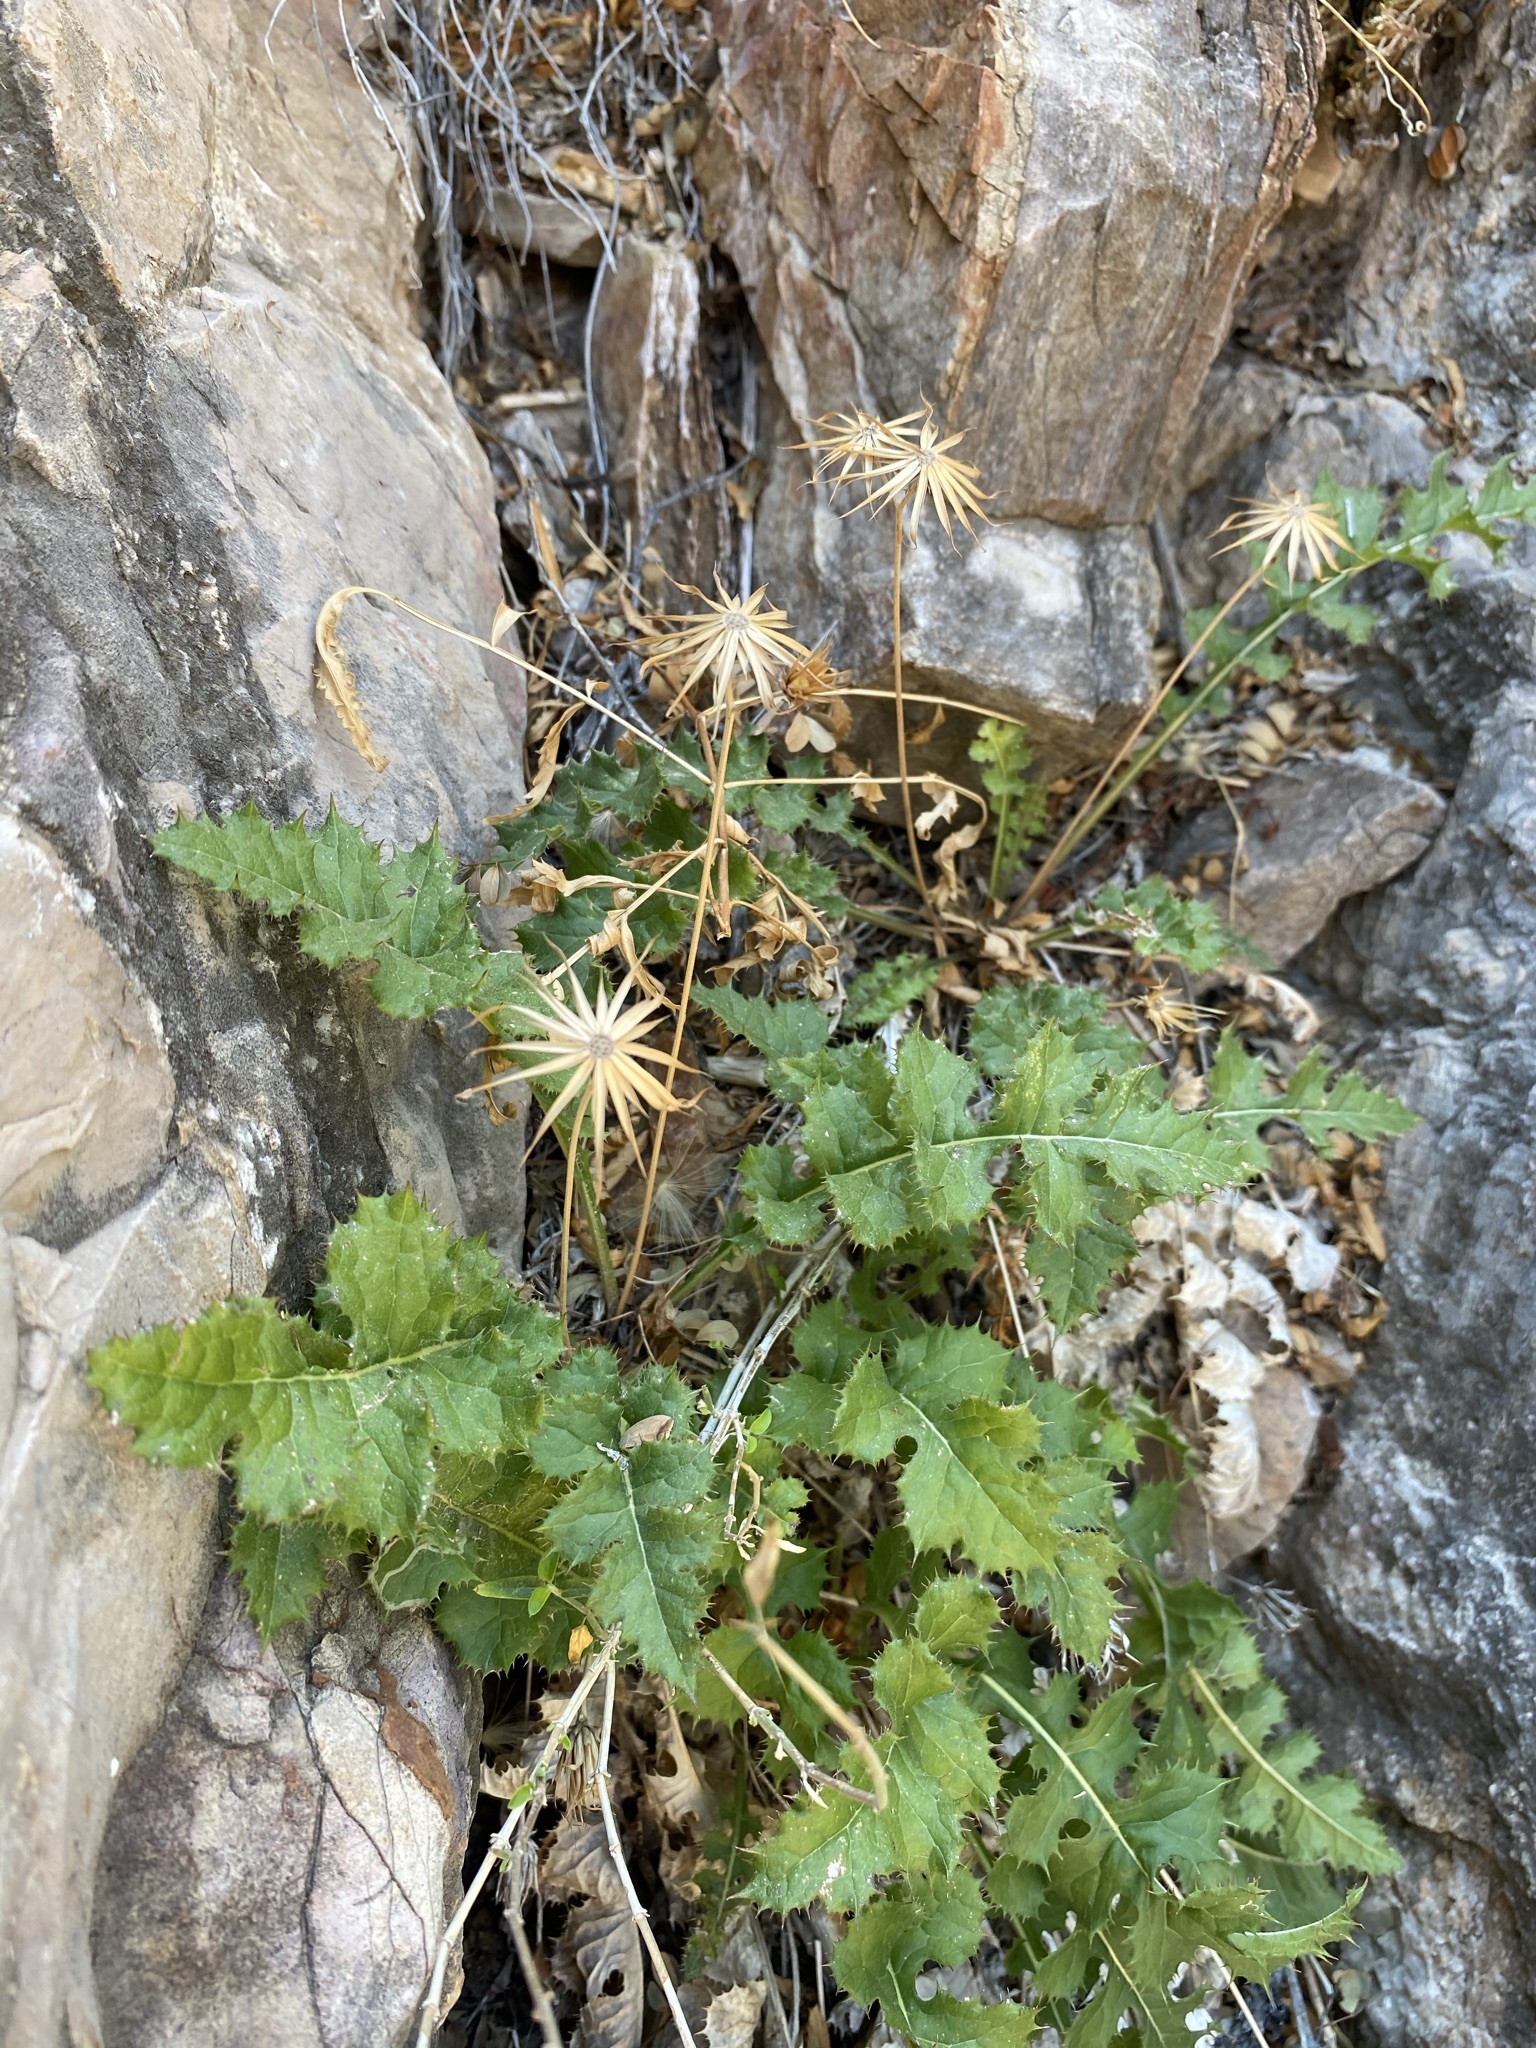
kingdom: Plantae
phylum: Tracheophyta
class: Magnoliopsida
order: Asterales
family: Asteraceae
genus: Acourtia
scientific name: Acourtia runcinata
